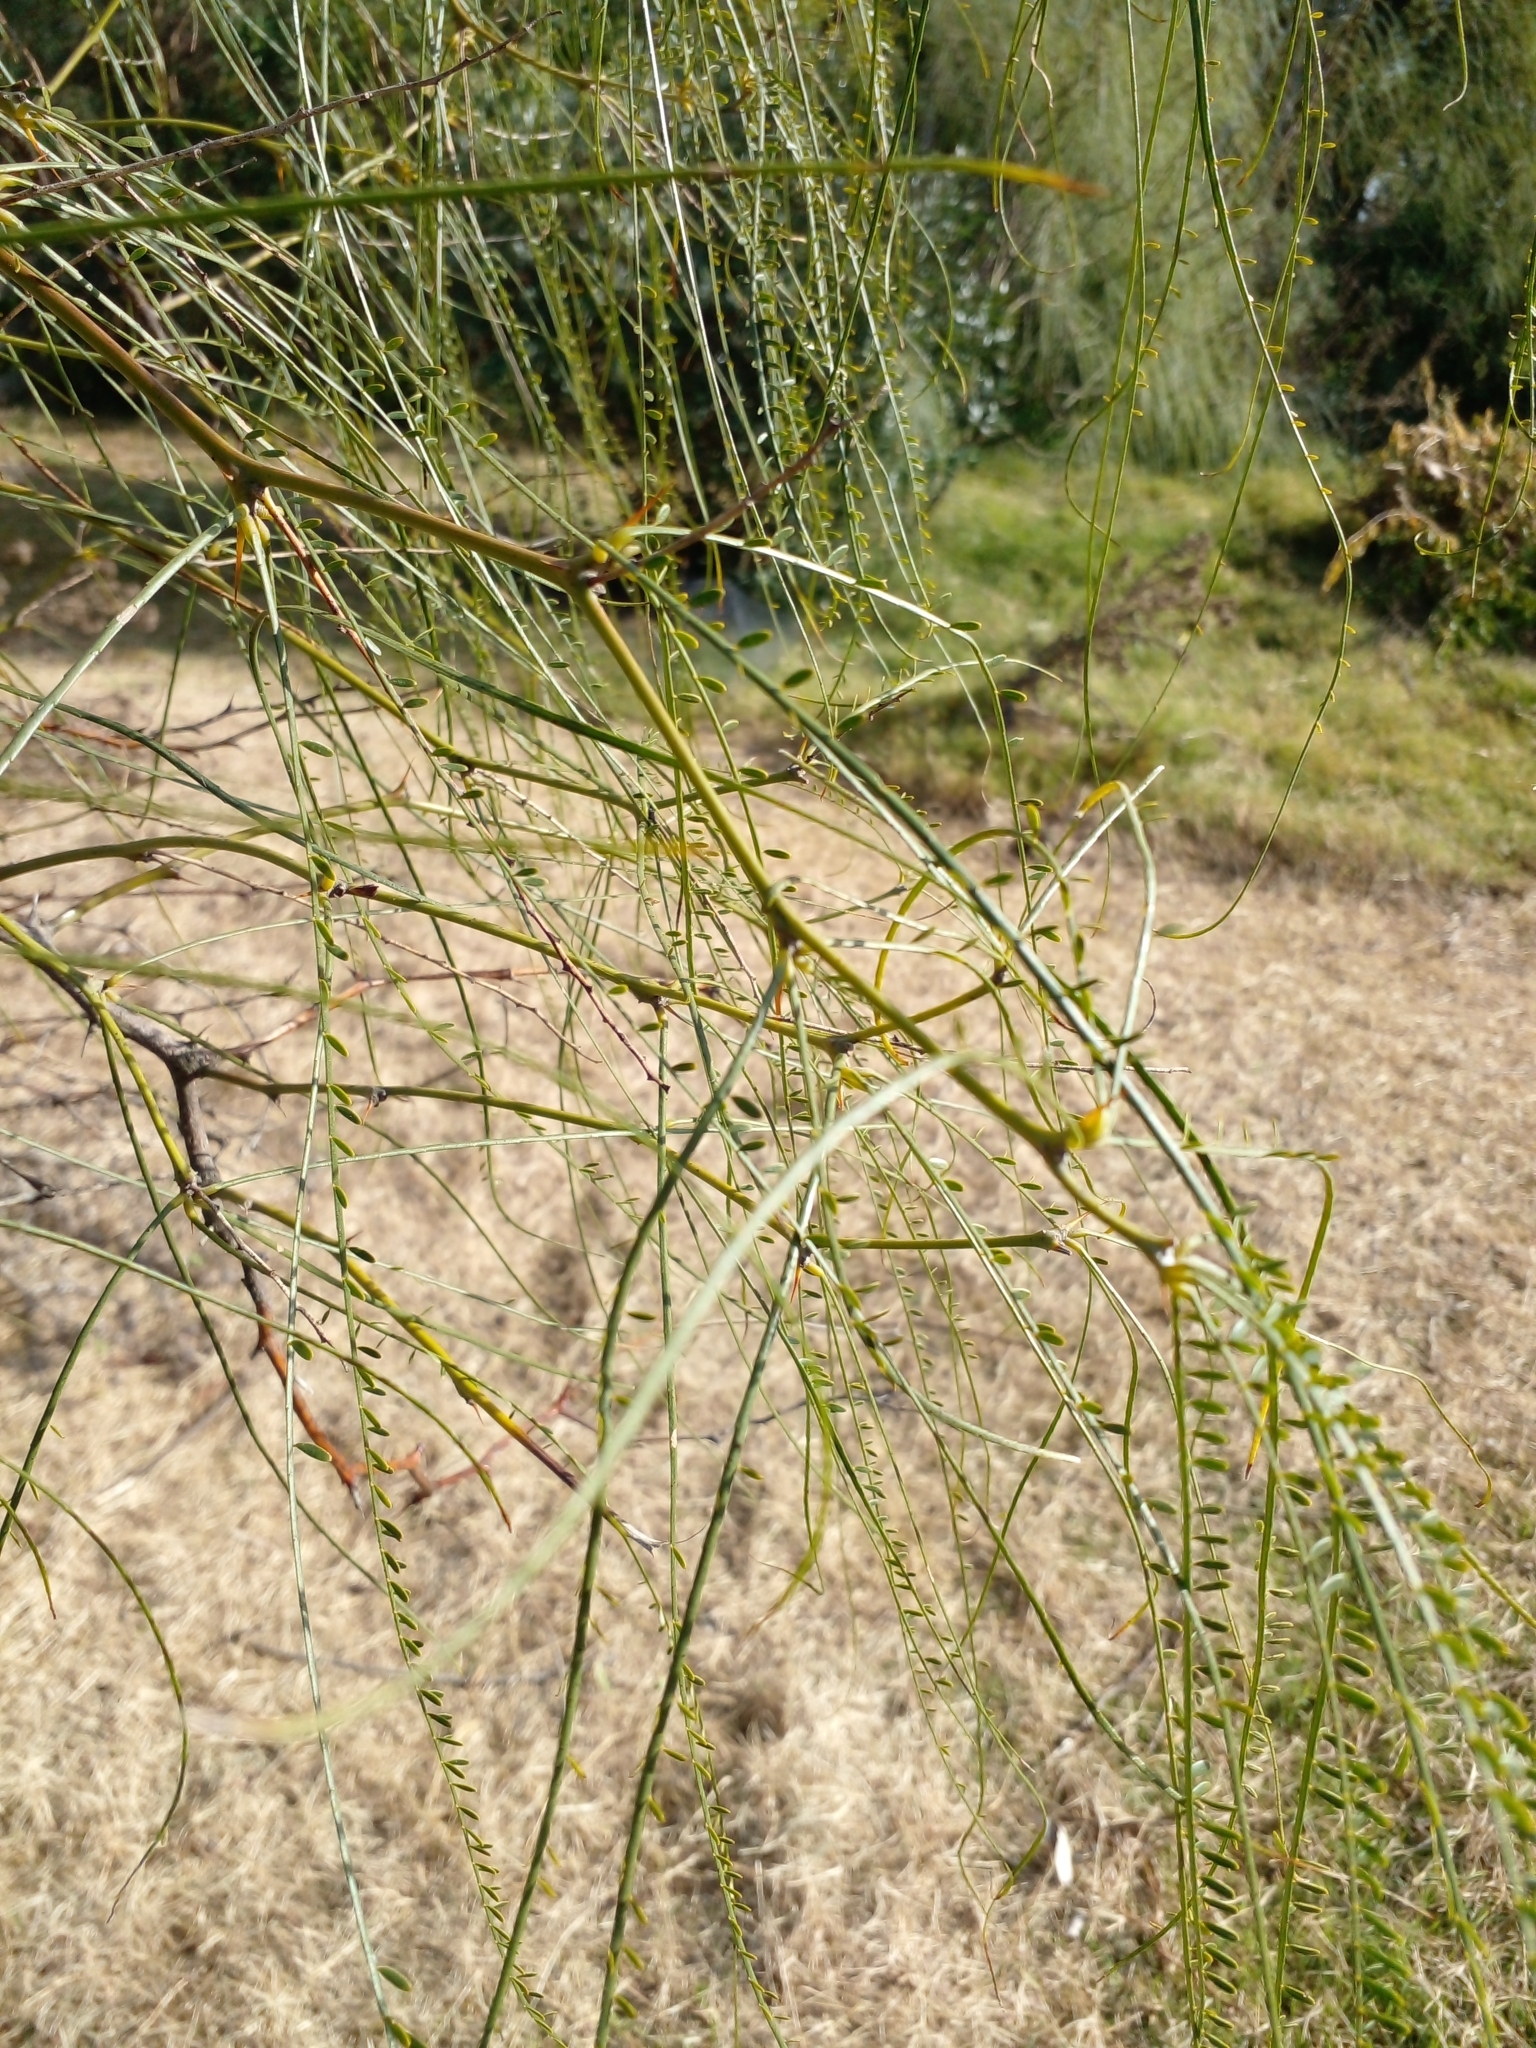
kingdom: Plantae
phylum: Tracheophyta
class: Magnoliopsida
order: Fabales
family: Fabaceae
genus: Parkinsonia
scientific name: Parkinsonia aculeata
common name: Jerusalem thorn
